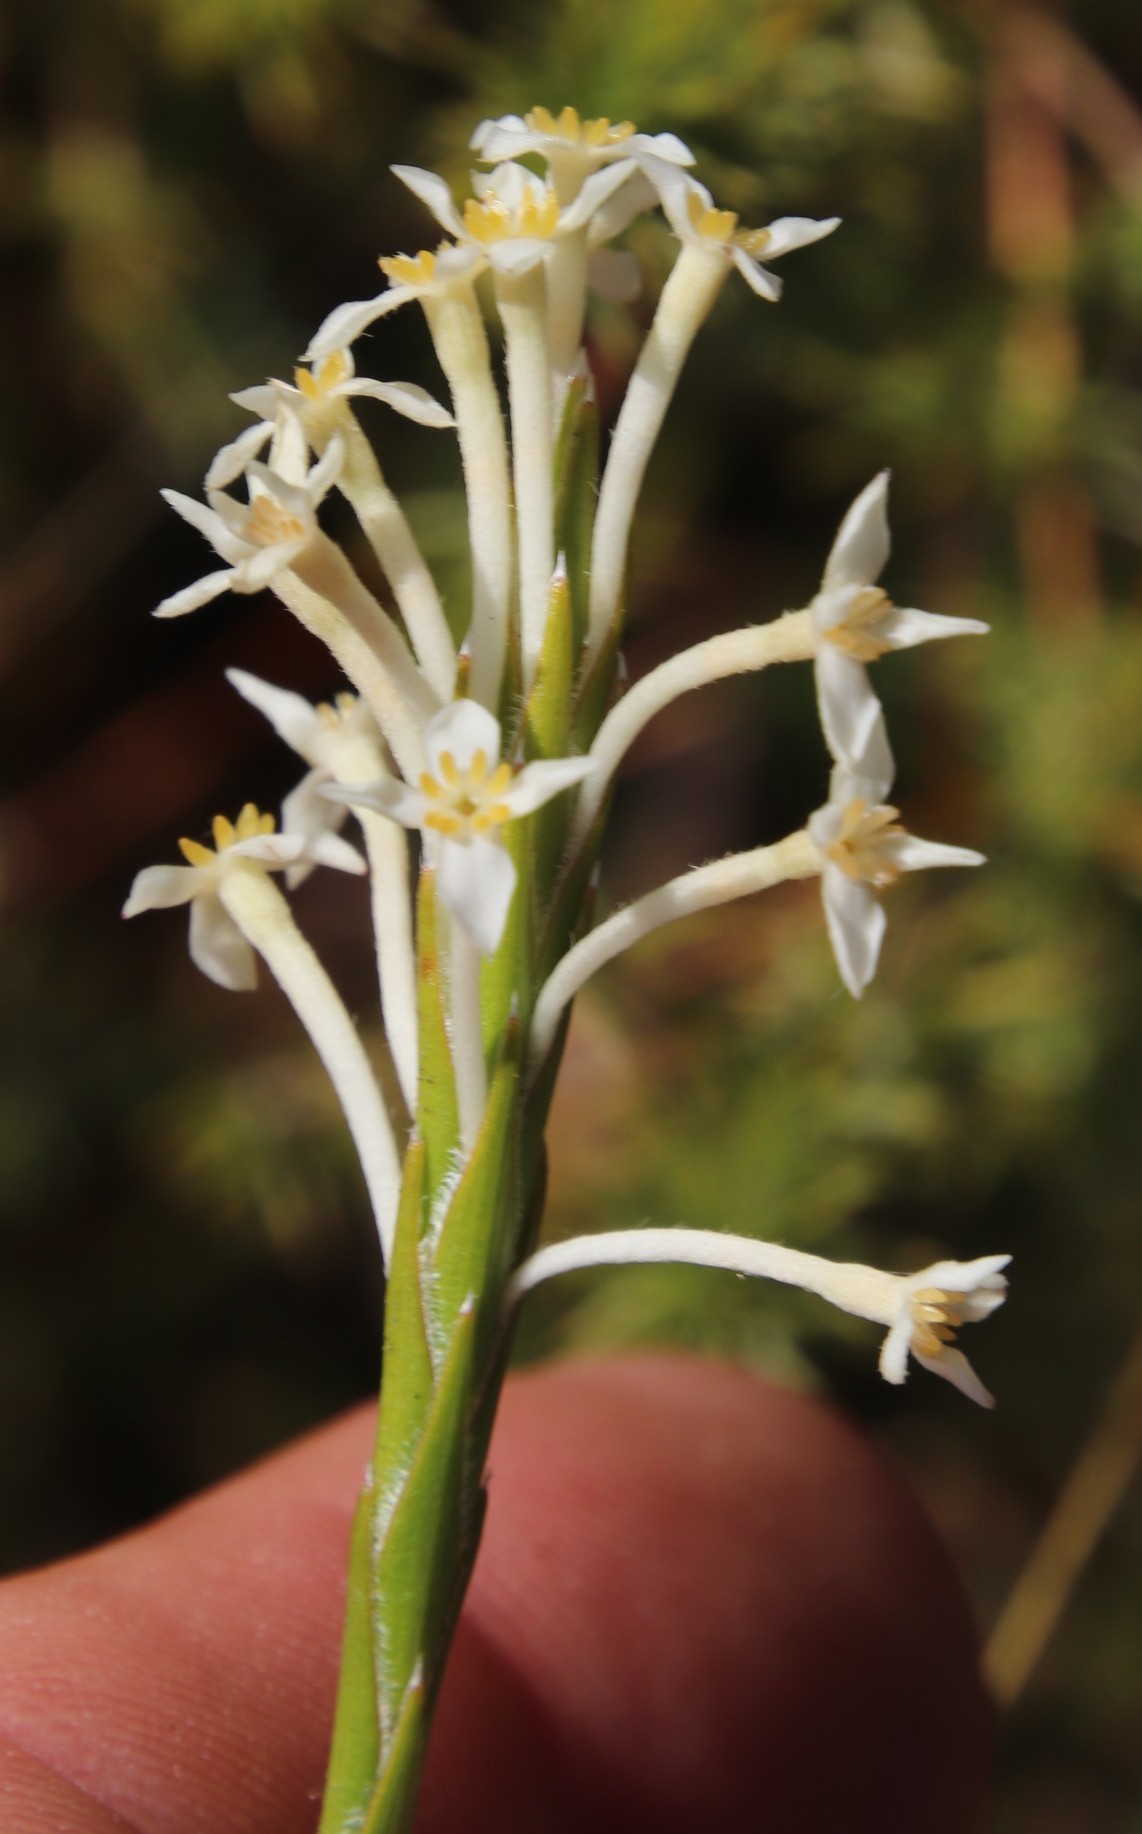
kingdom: Plantae
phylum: Tracheophyta
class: Magnoliopsida
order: Malvales
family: Thymelaeaceae
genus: Struthiola
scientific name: Struthiola ciliata
